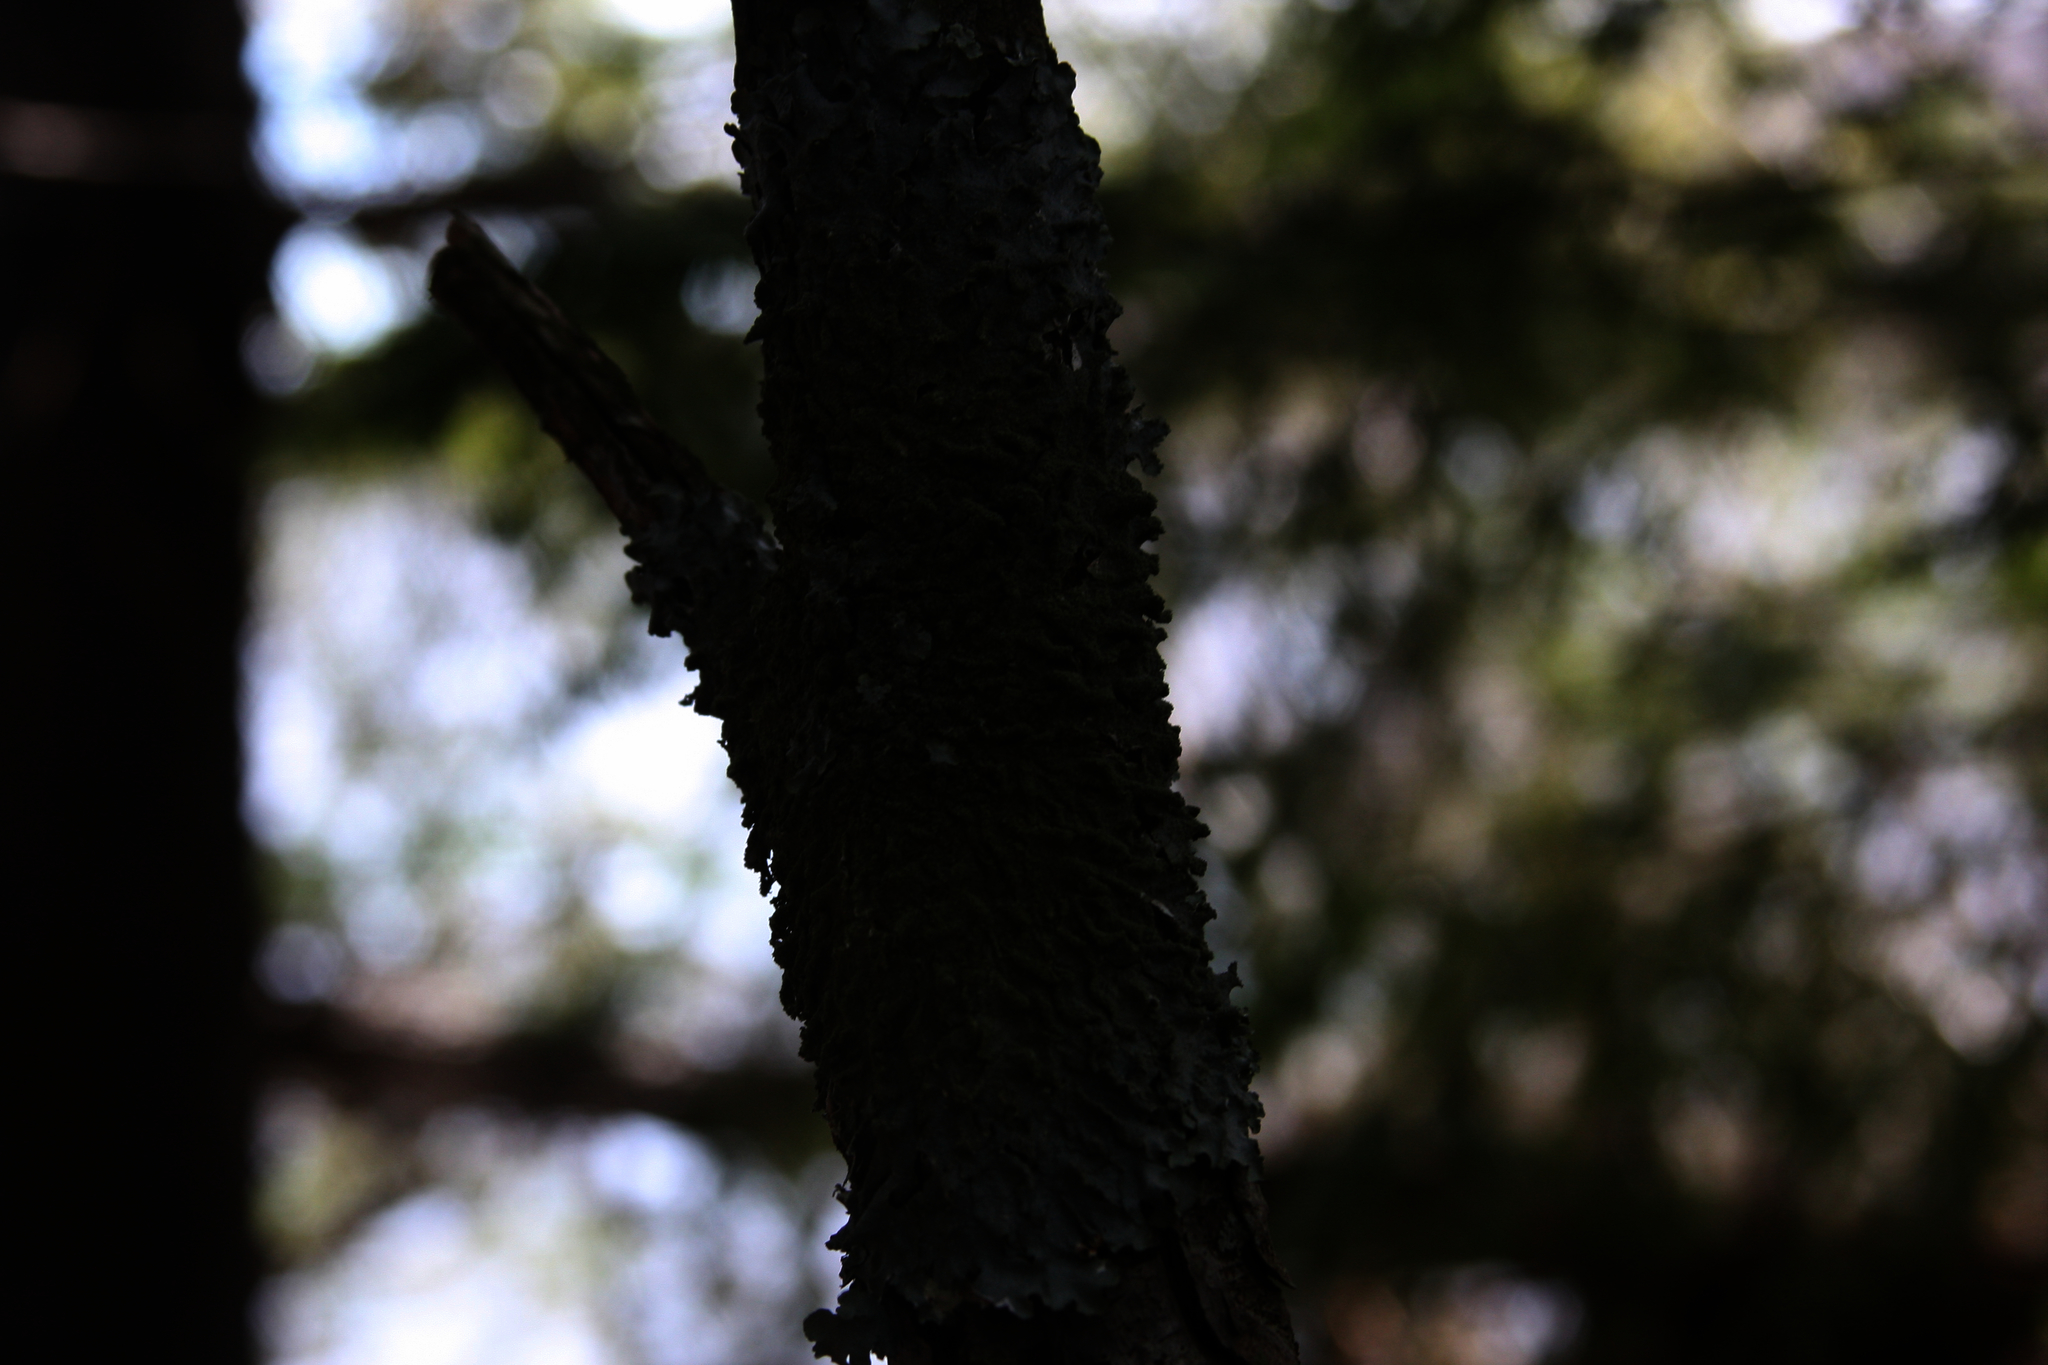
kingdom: Fungi
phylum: Ascomycota
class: Lecanoromycetes
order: Lecanorales
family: Parmeliaceae
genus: Punctelia
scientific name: Punctelia rudecta
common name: Rough speckled shield lichen
